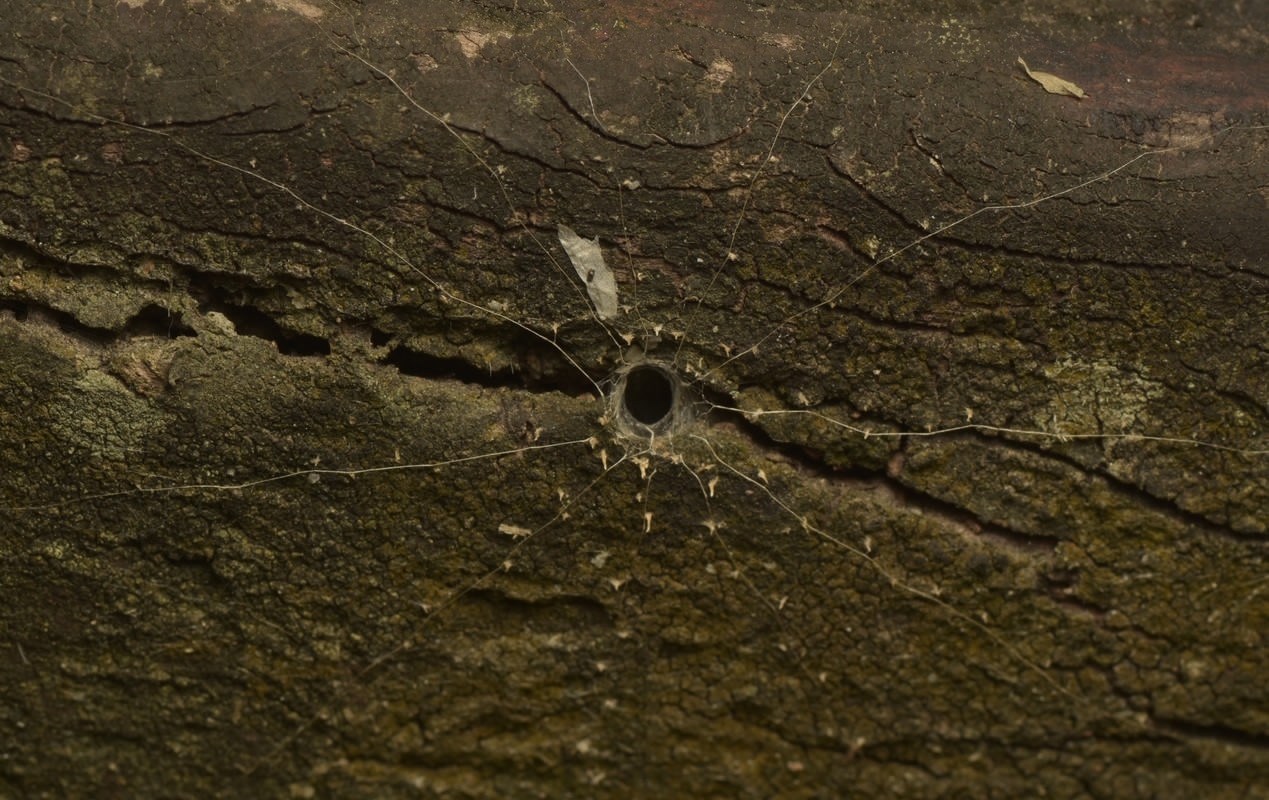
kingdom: Animalia
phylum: Arthropoda
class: Arachnida
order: Araneae
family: Segestriidae
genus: Gippsicola
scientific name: Gippsicola robusta
